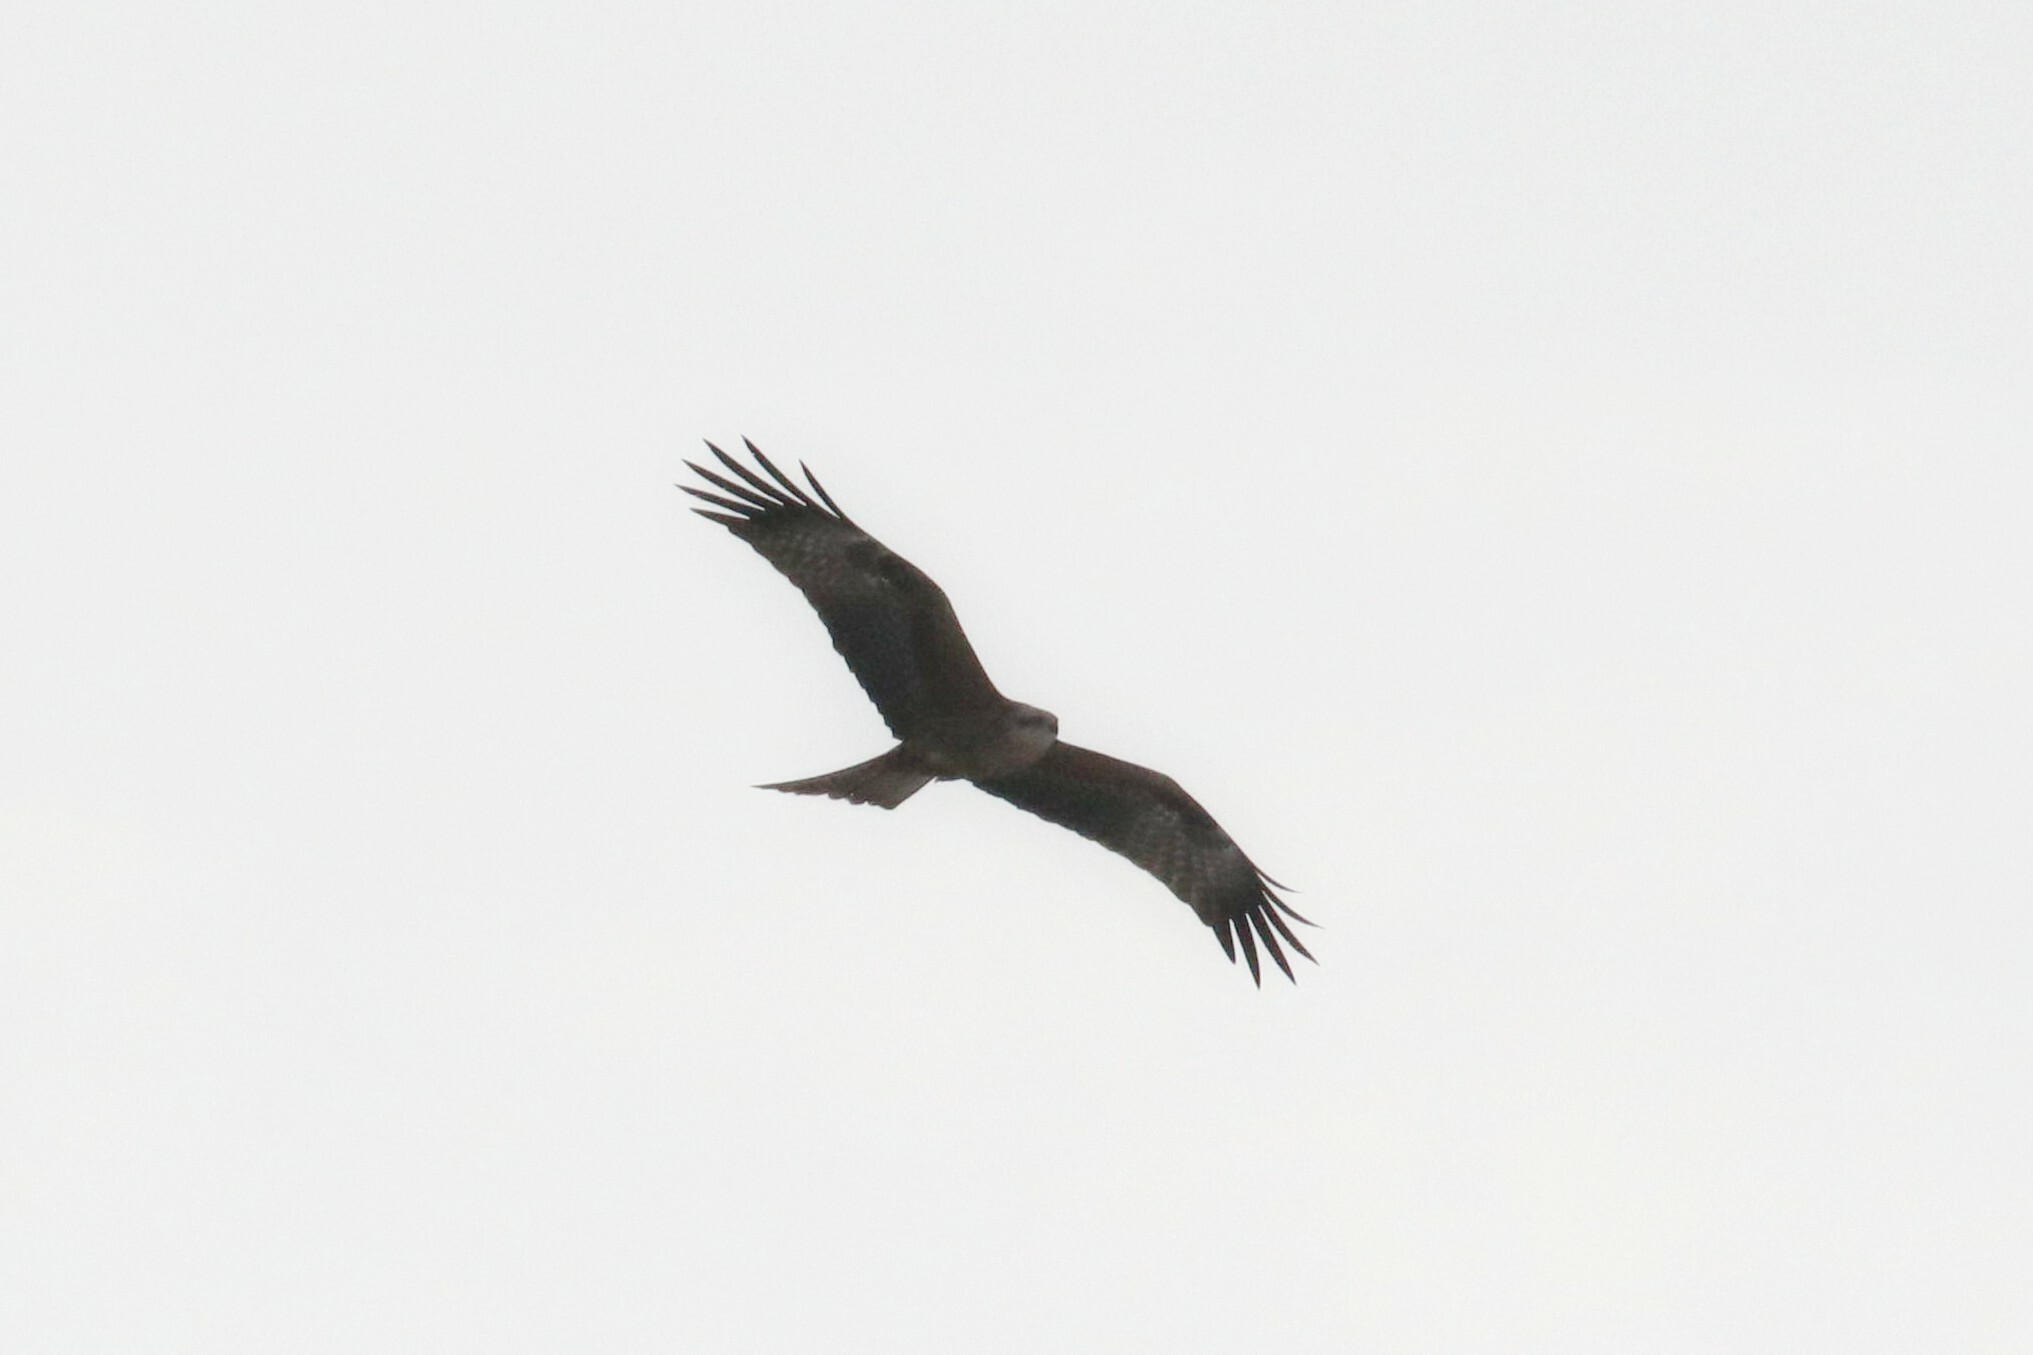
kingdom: Animalia
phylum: Chordata
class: Aves
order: Accipitriformes
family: Accipitridae
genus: Milvus
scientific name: Milvus migrans
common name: Black kite
